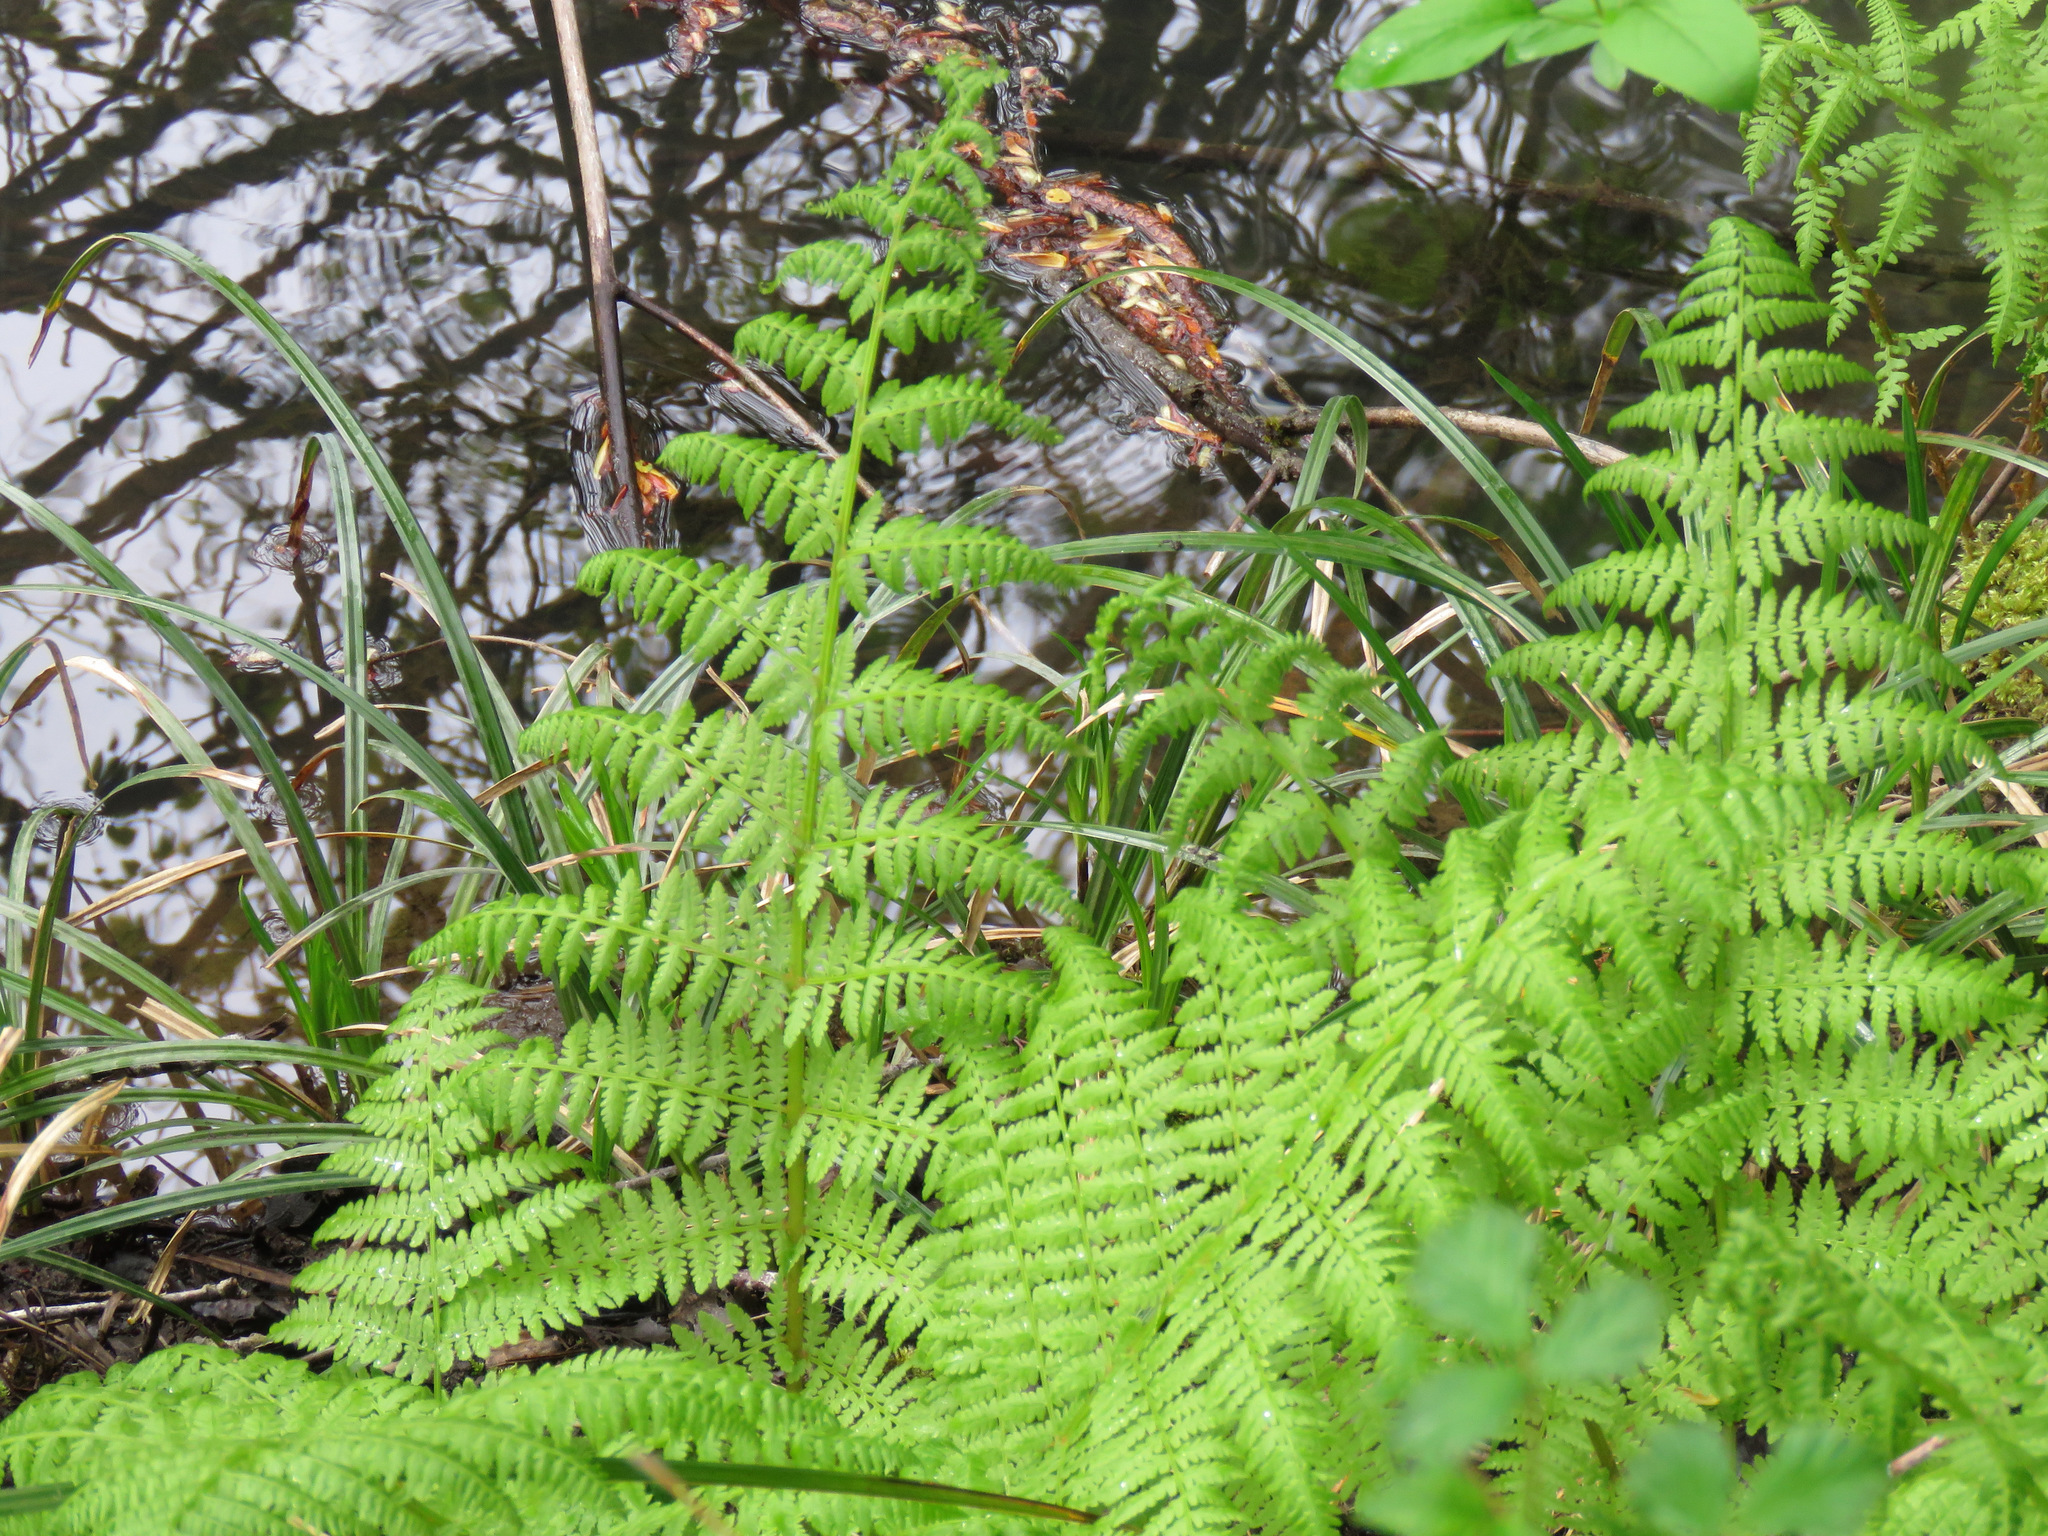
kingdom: Plantae
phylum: Tracheophyta
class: Polypodiopsida
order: Polypodiales
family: Athyriaceae
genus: Athyrium
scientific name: Athyrium filix-femina
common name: Lady fern
